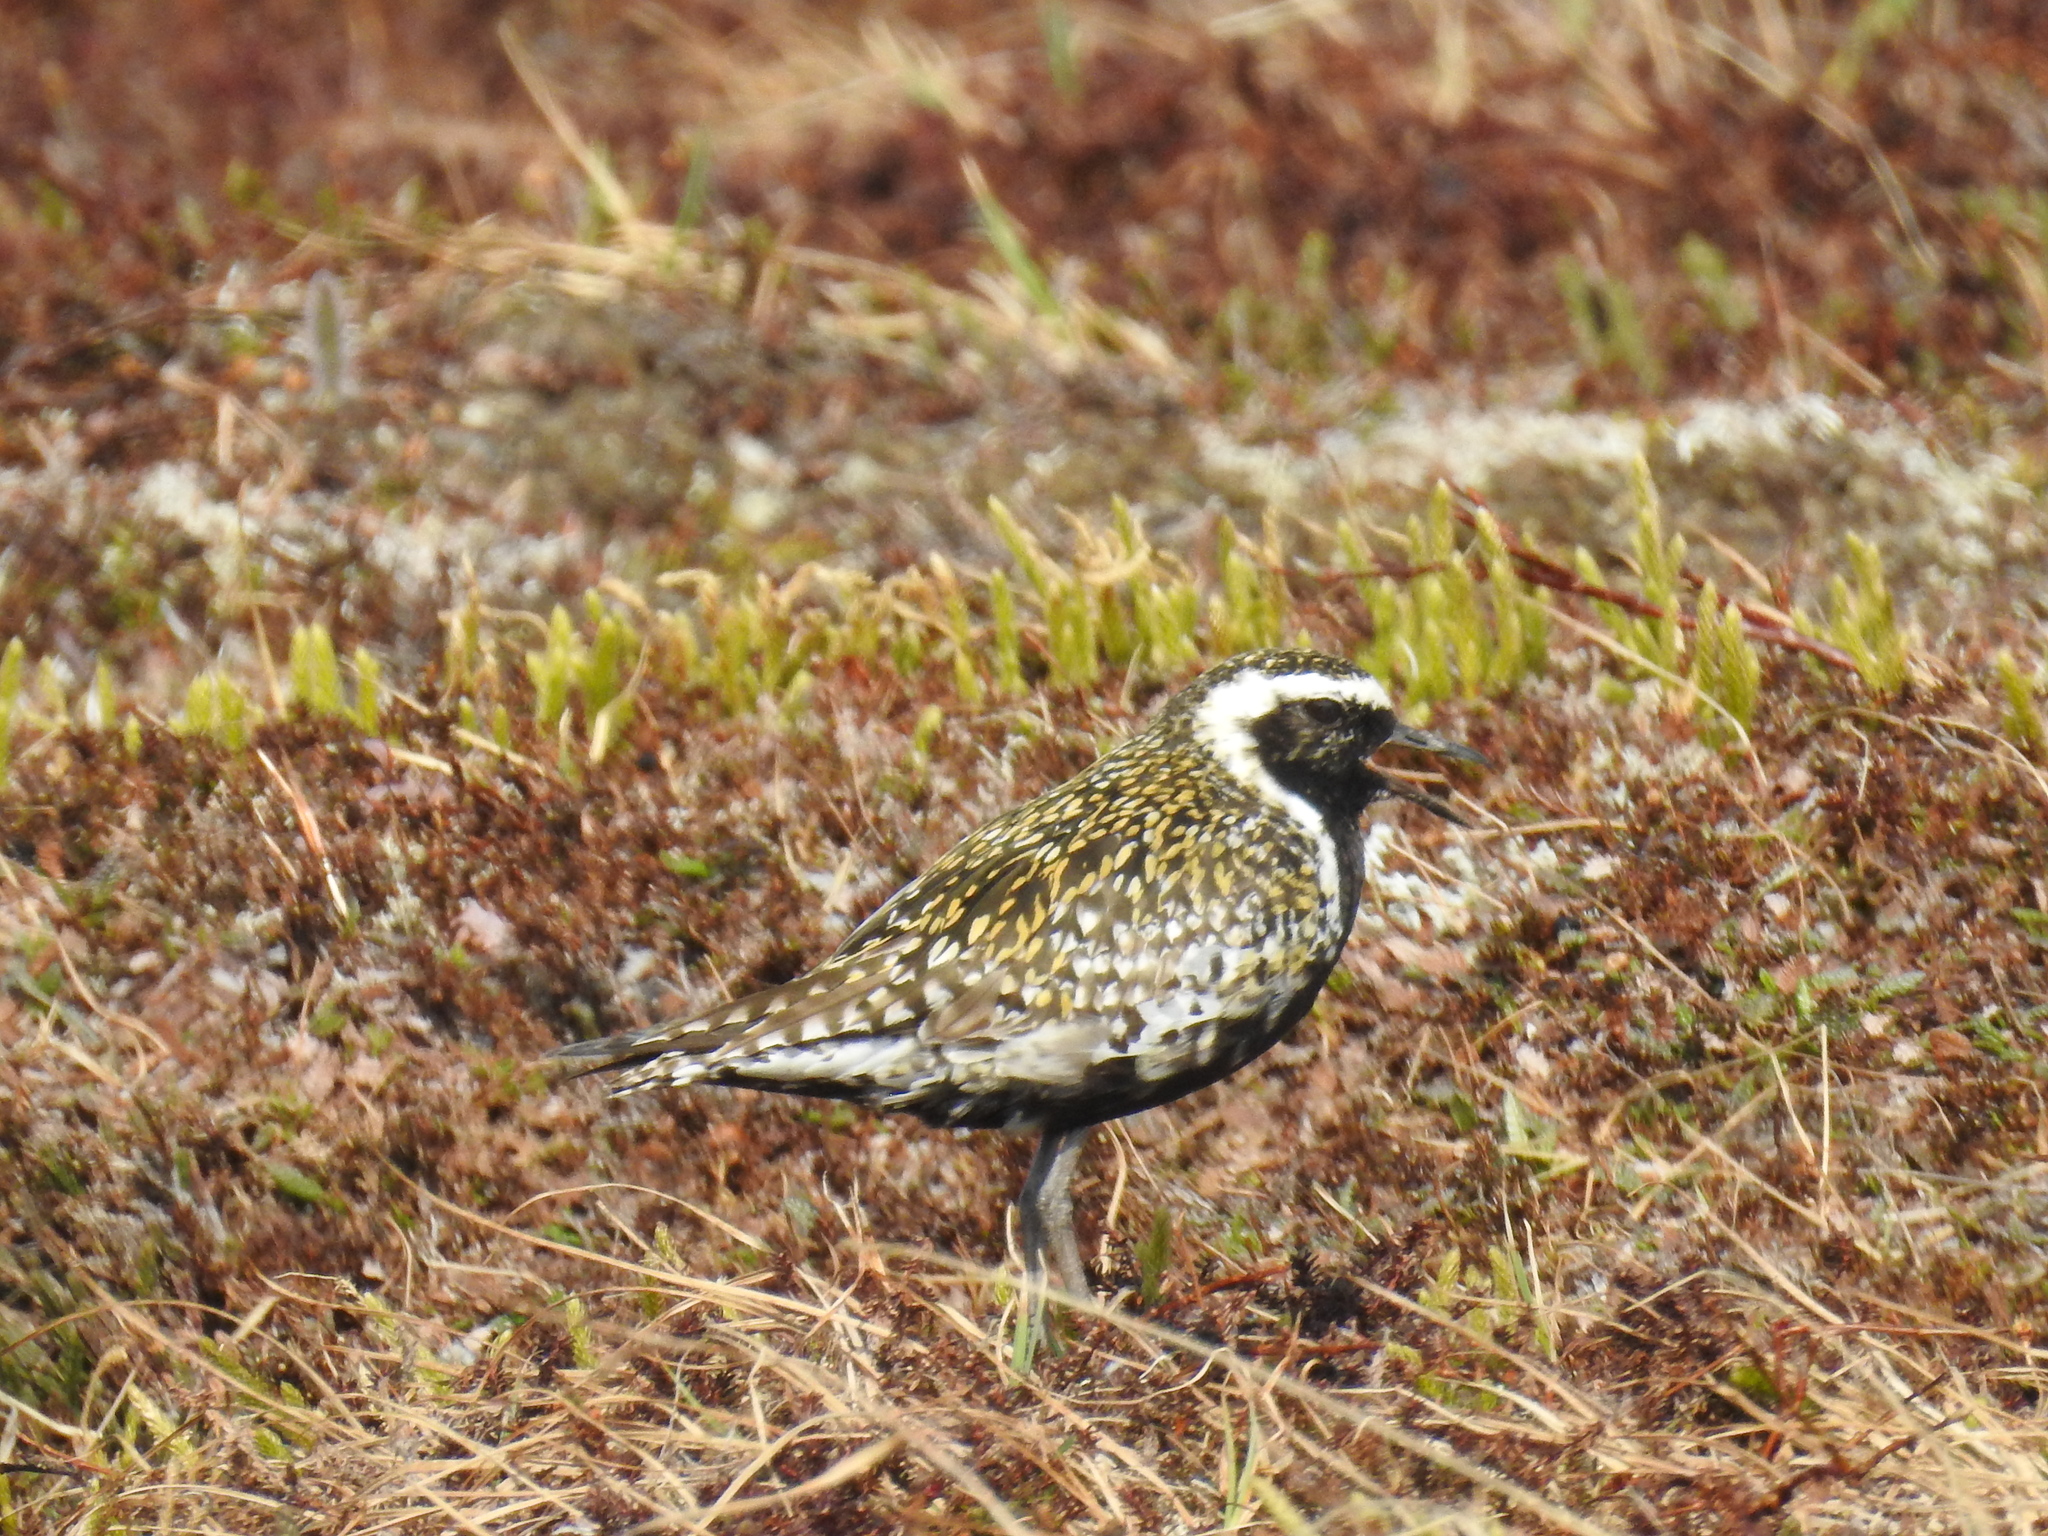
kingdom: Animalia
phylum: Chordata
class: Aves
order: Charadriiformes
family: Charadriidae
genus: Pluvialis
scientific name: Pluvialis fulva
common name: Pacific golden plover
